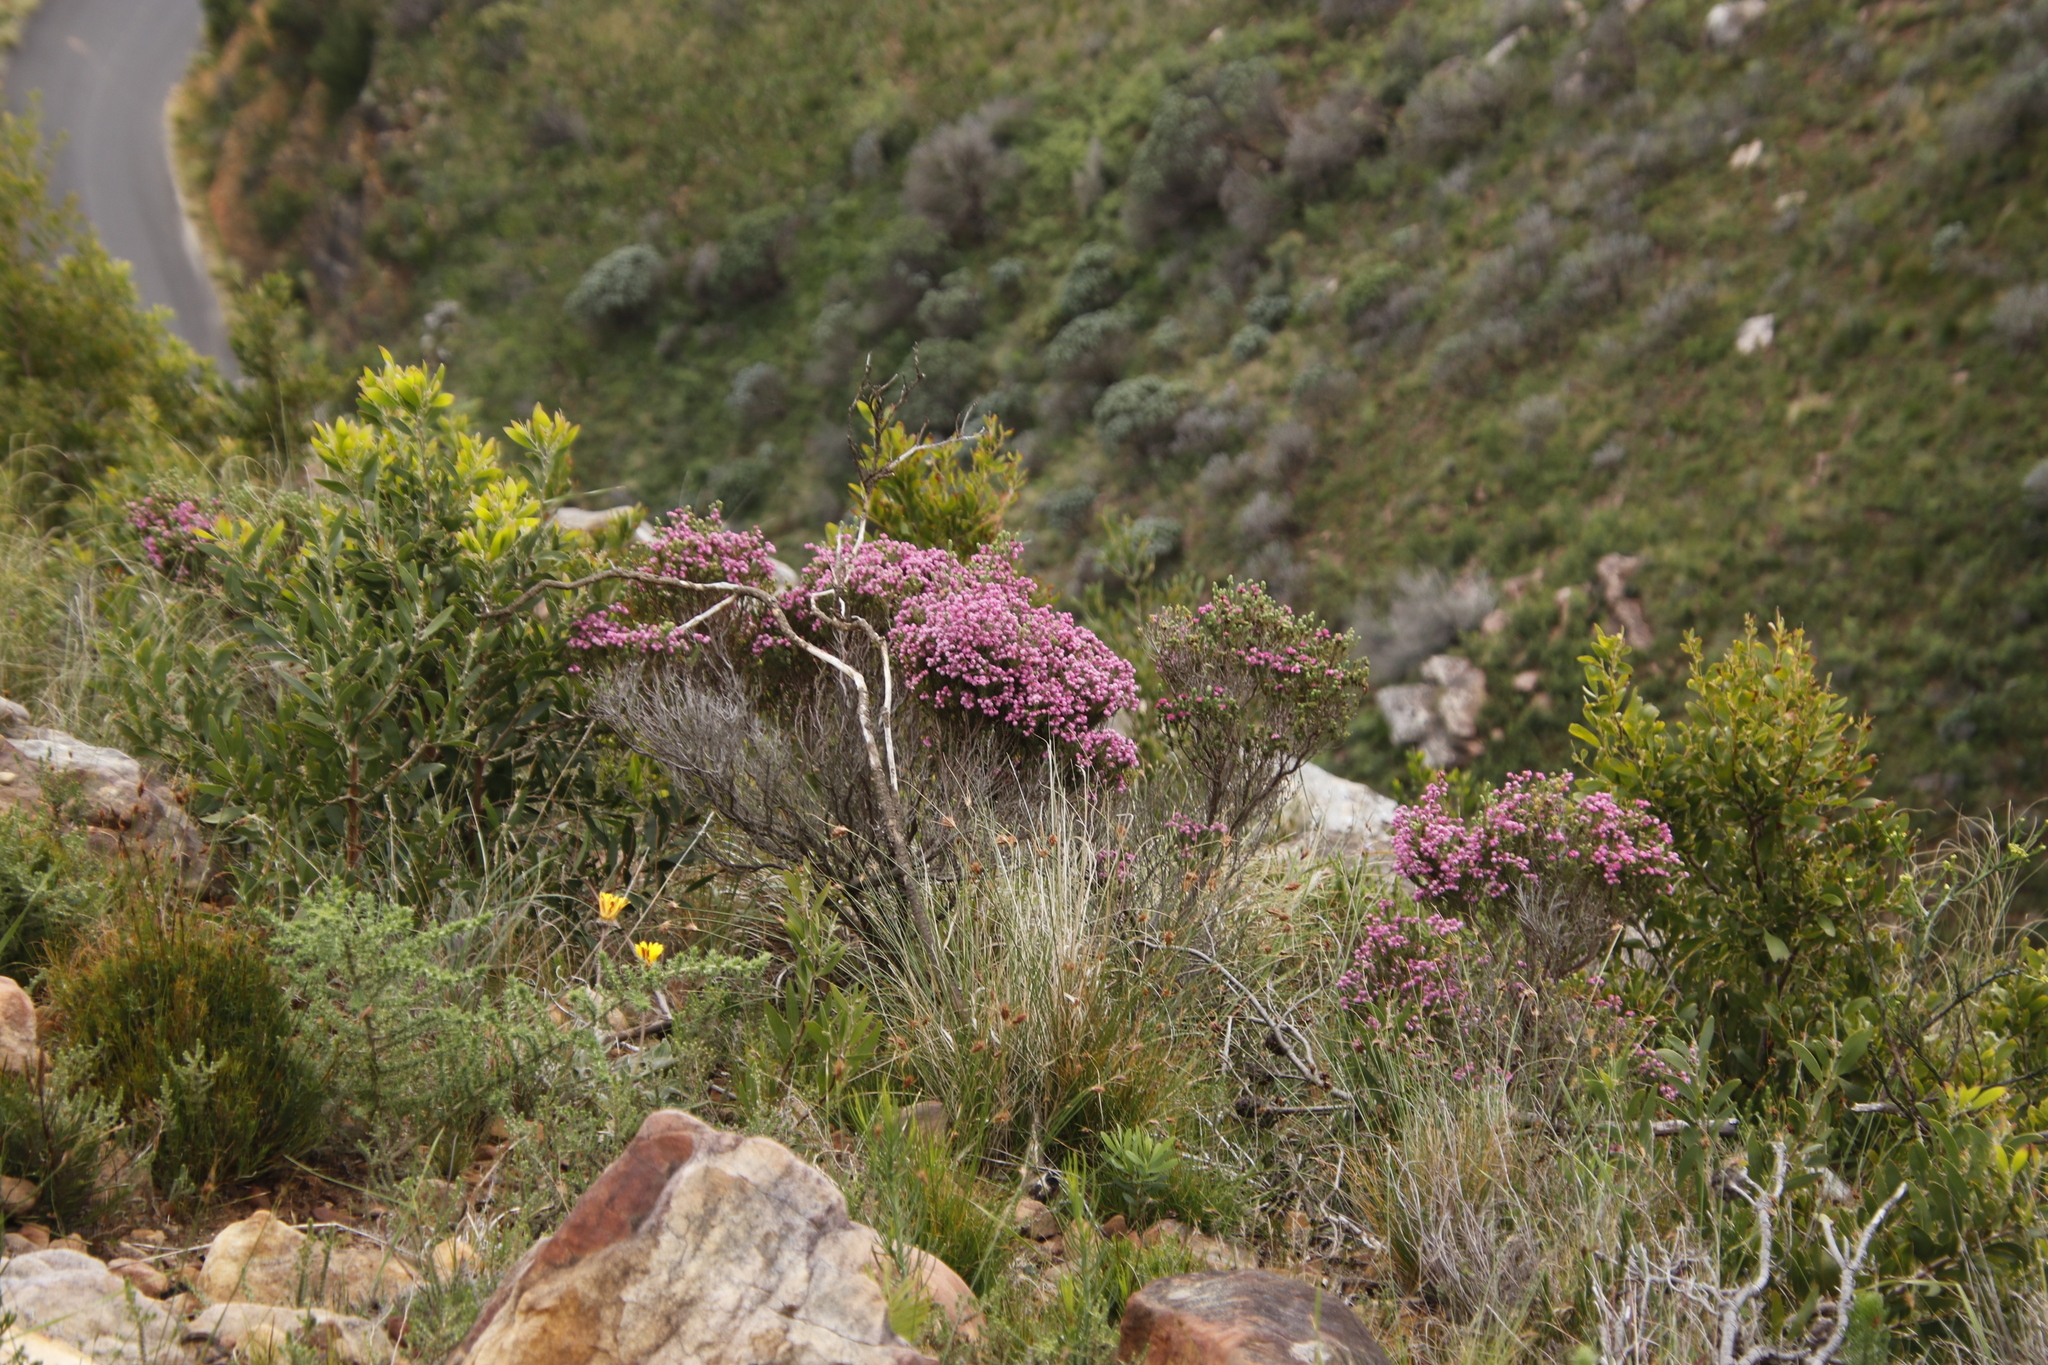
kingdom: Plantae
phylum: Tracheophyta
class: Magnoliopsida
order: Ericales
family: Ericaceae
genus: Erica
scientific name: Erica baccans
